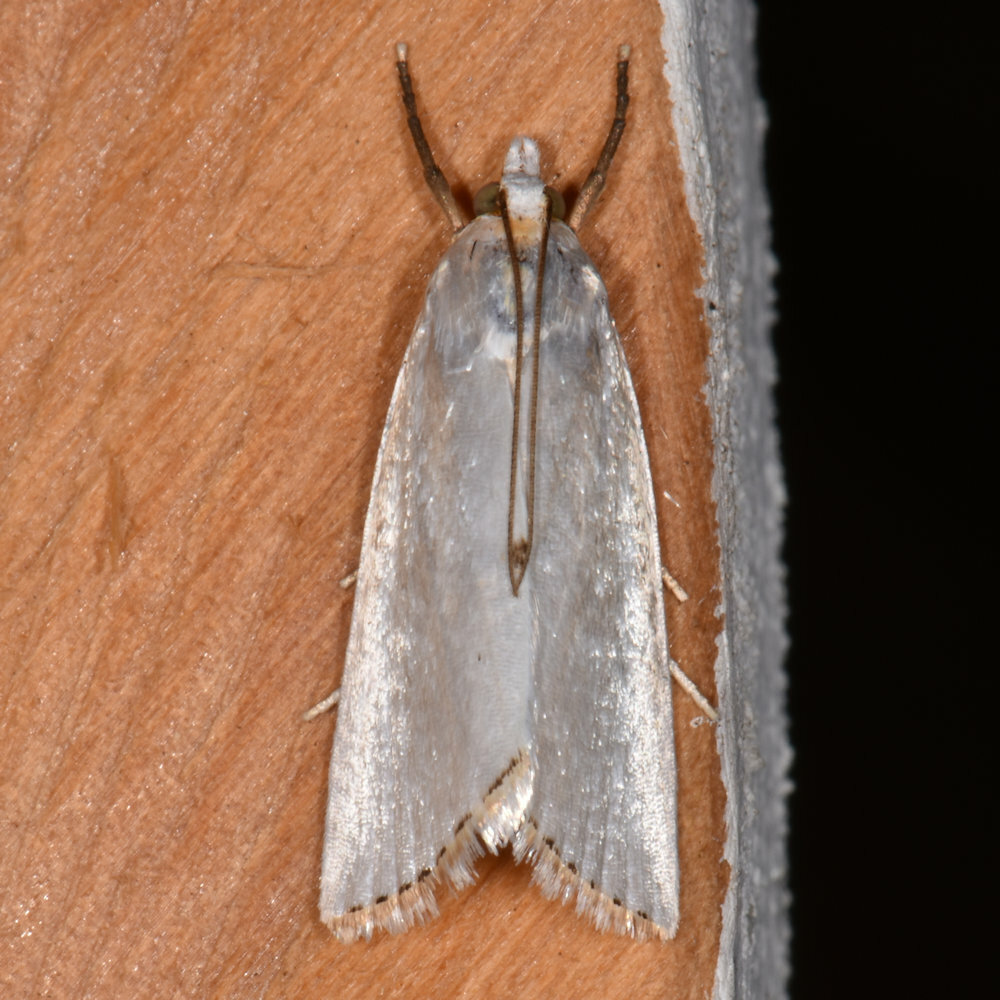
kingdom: Animalia
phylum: Arthropoda
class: Insecta
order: Lepidoptera
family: Crambidae
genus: Argyria
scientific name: Argyria nivalis
